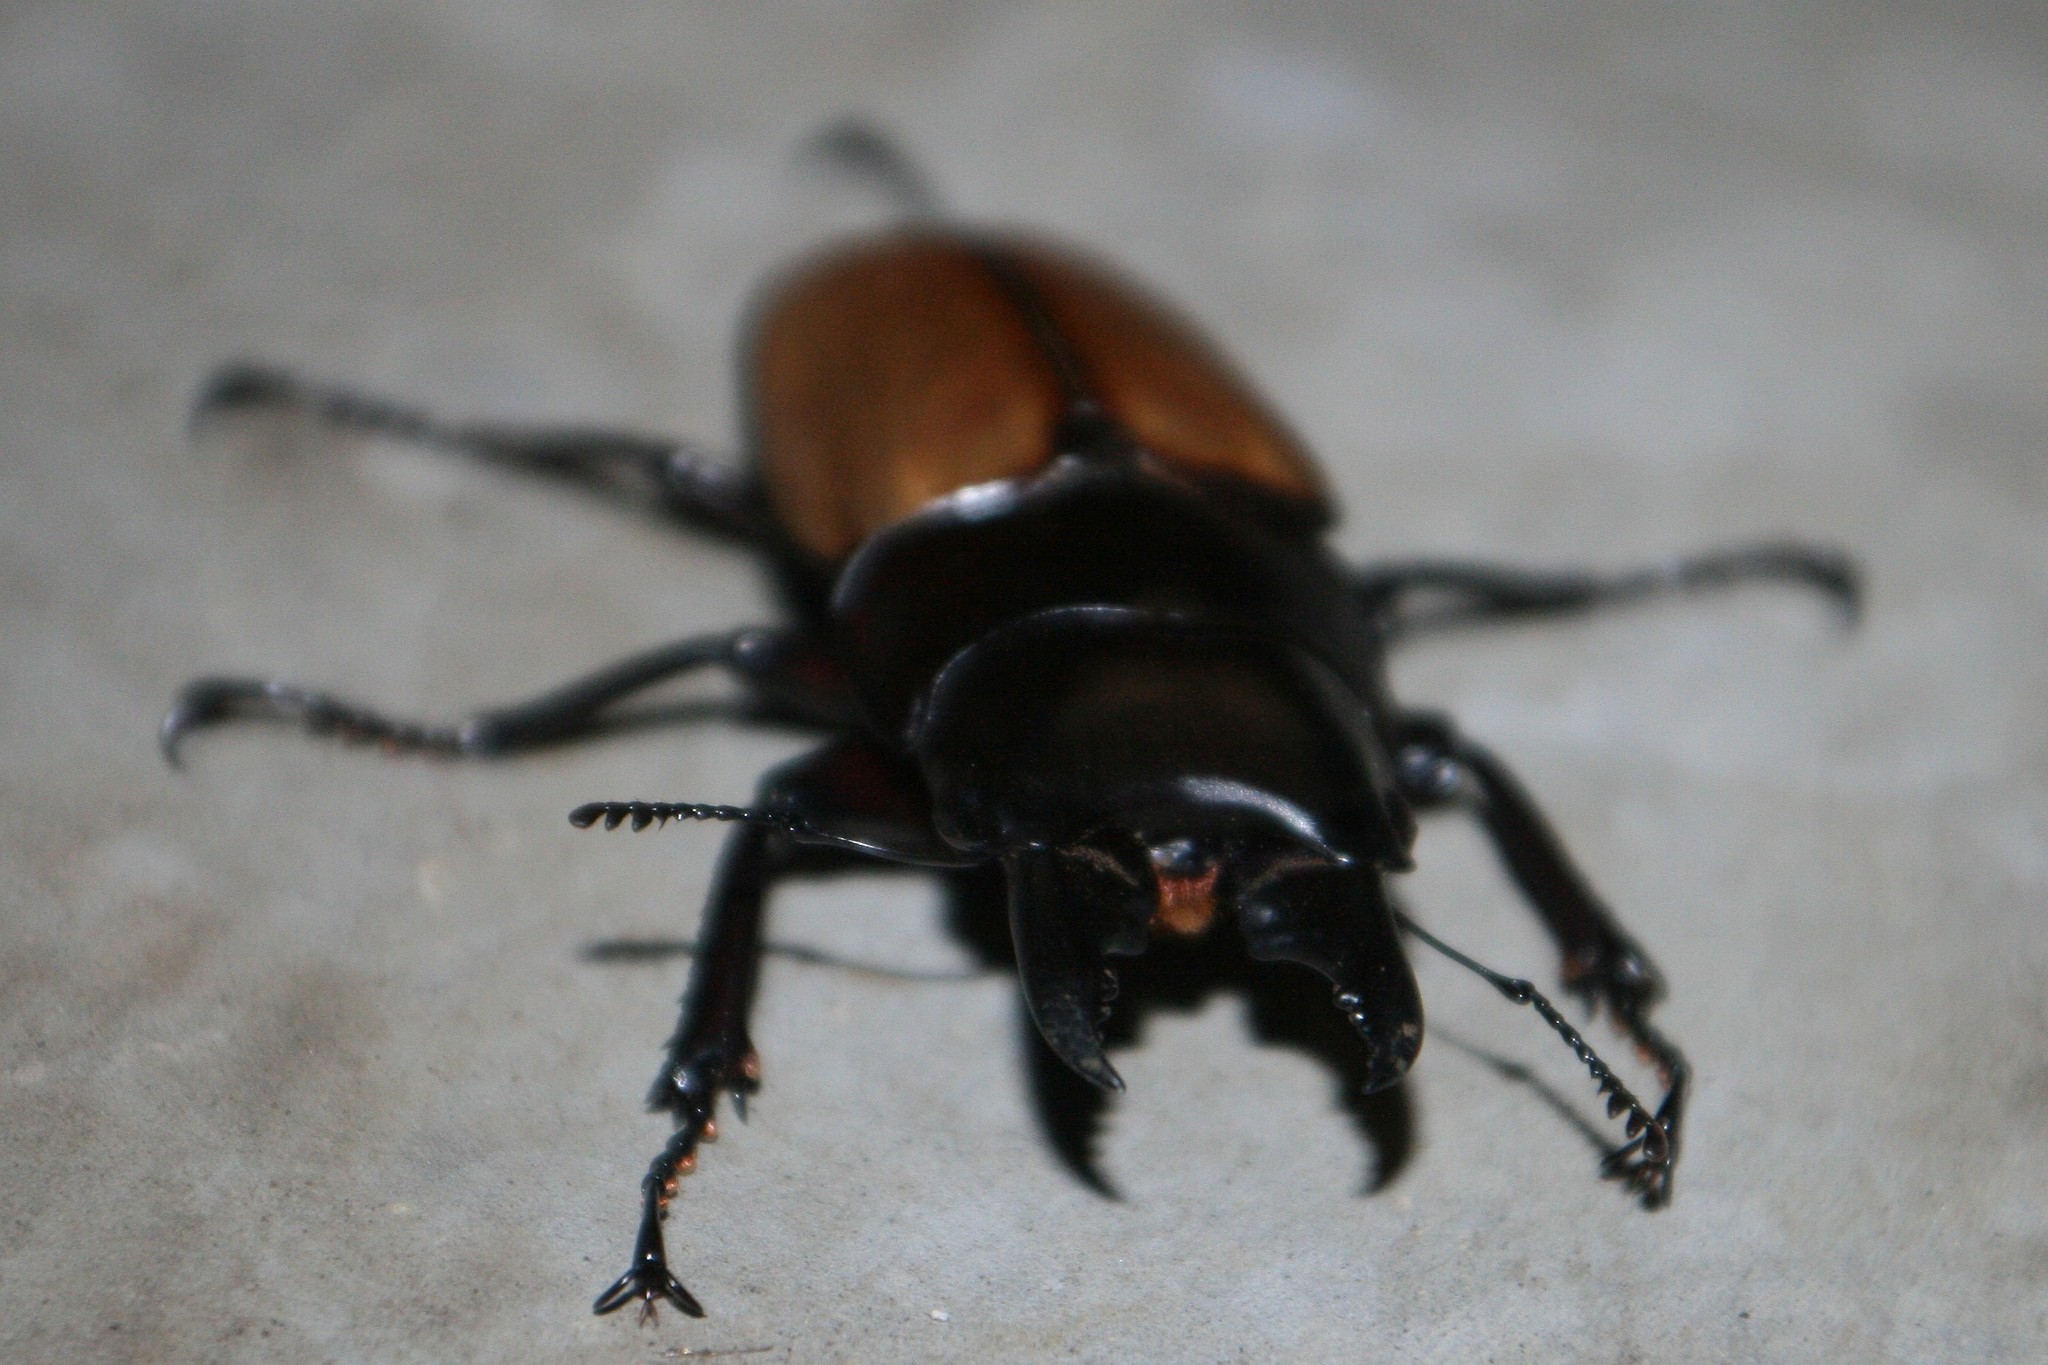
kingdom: Animalia
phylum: Arthropoda
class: Insecta
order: Coleoptera
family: Lucanidae
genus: Prosopocoilus
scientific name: Prosopocoilus lafertei
